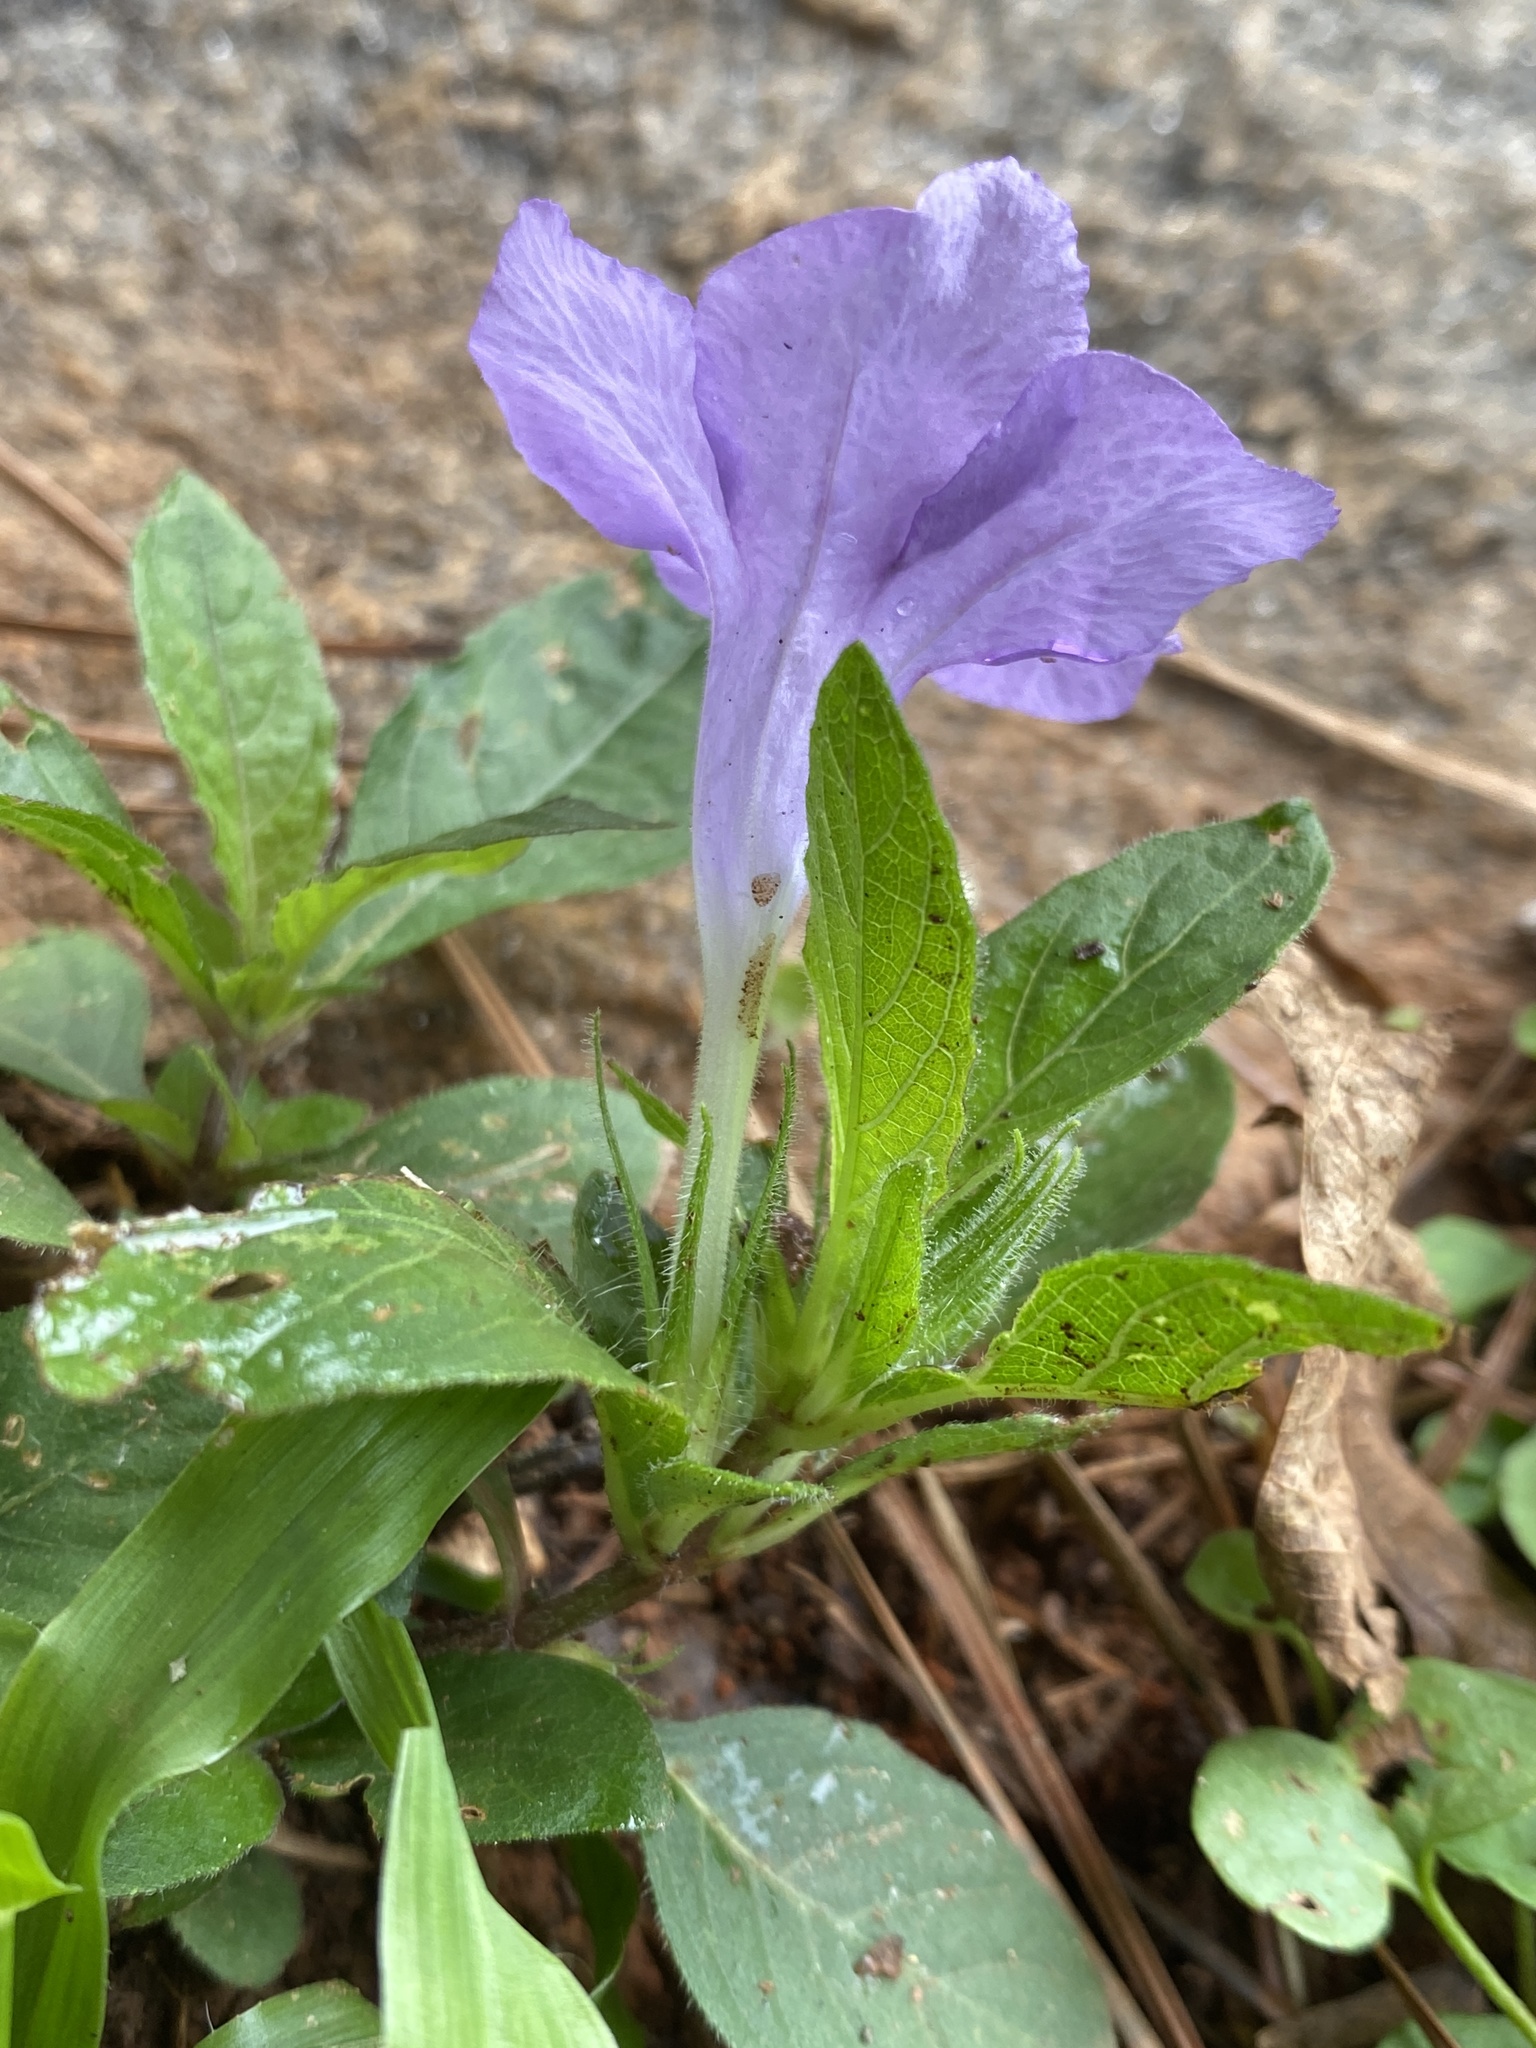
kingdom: Plantae
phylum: Tracheophyta
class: Magnoliopsida
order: Lamiales
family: Acanthaceae
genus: Ruellia
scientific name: Ruellia caroliniensis
